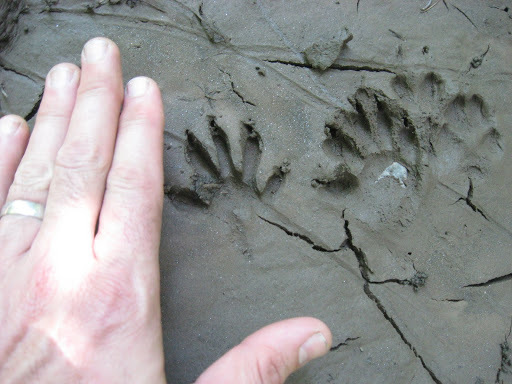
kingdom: Animalia
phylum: Chordata
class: Mammalia
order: Carnivora
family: Procyonidae
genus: Procyon
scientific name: Procyon lotor
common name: Raccoon
